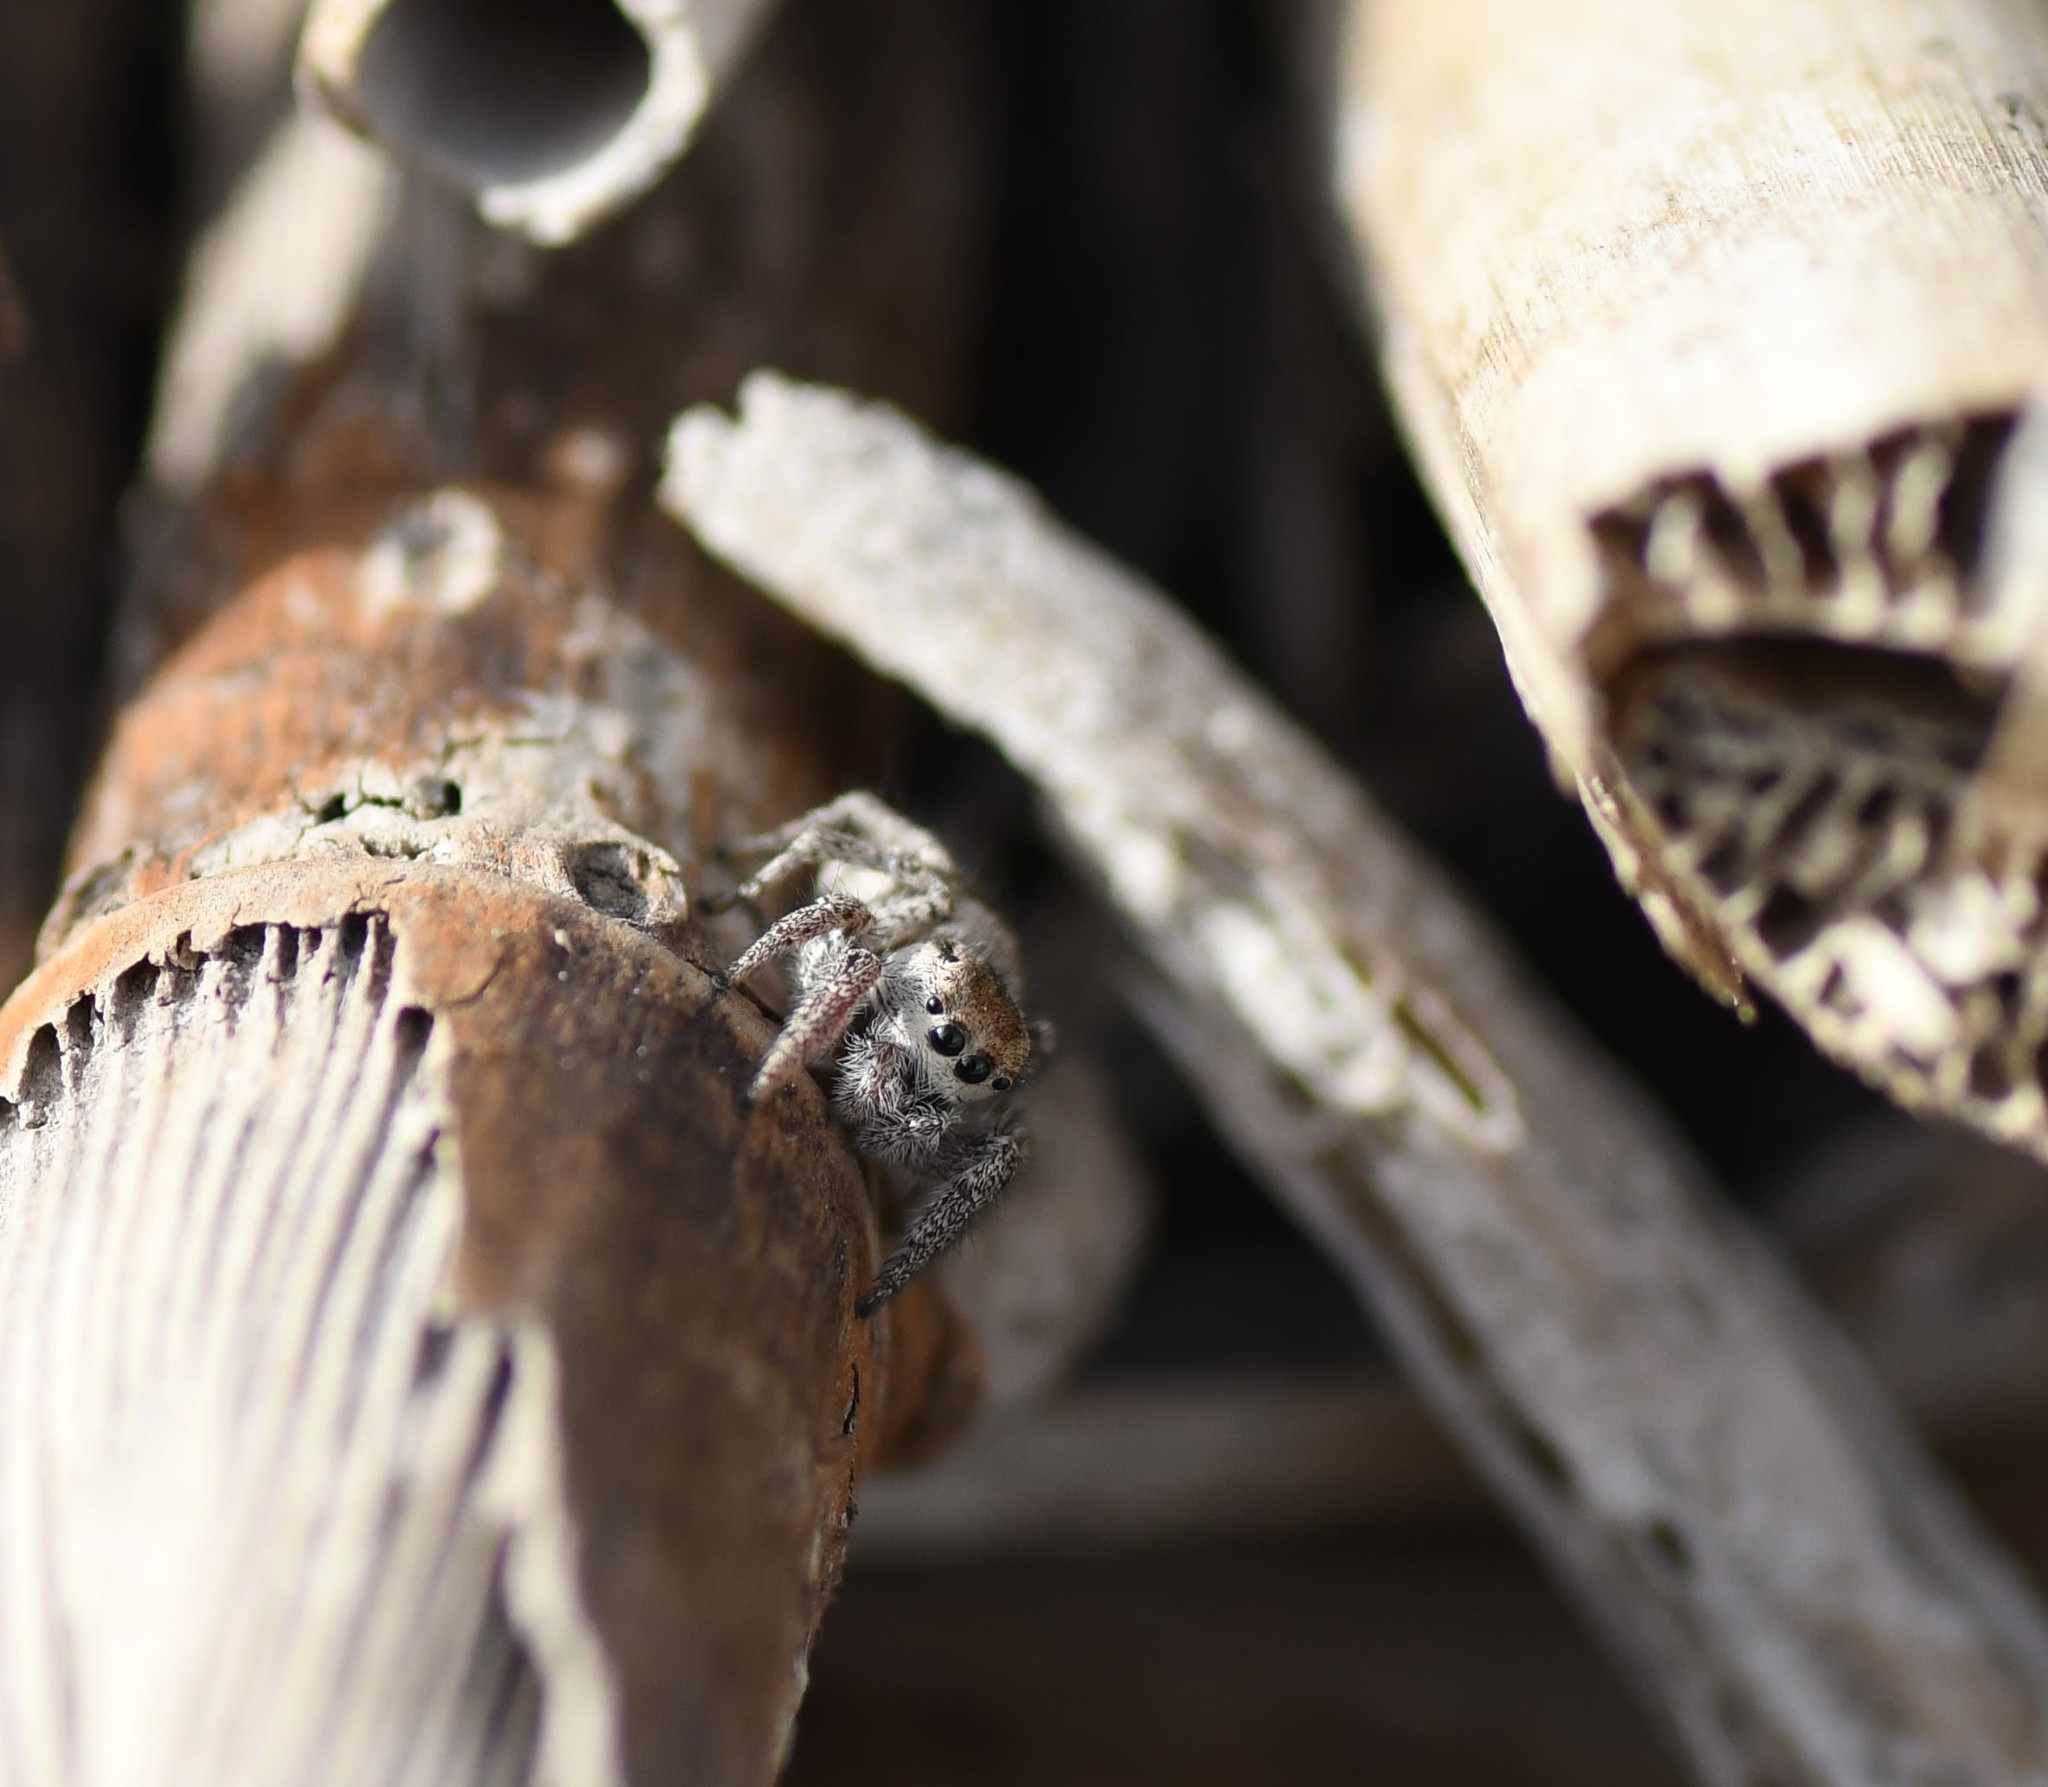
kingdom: Animalia
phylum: Arthropoda
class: Arachnida
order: Araneae
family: Salticidae
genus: Habronattus
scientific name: Habronattus festus
